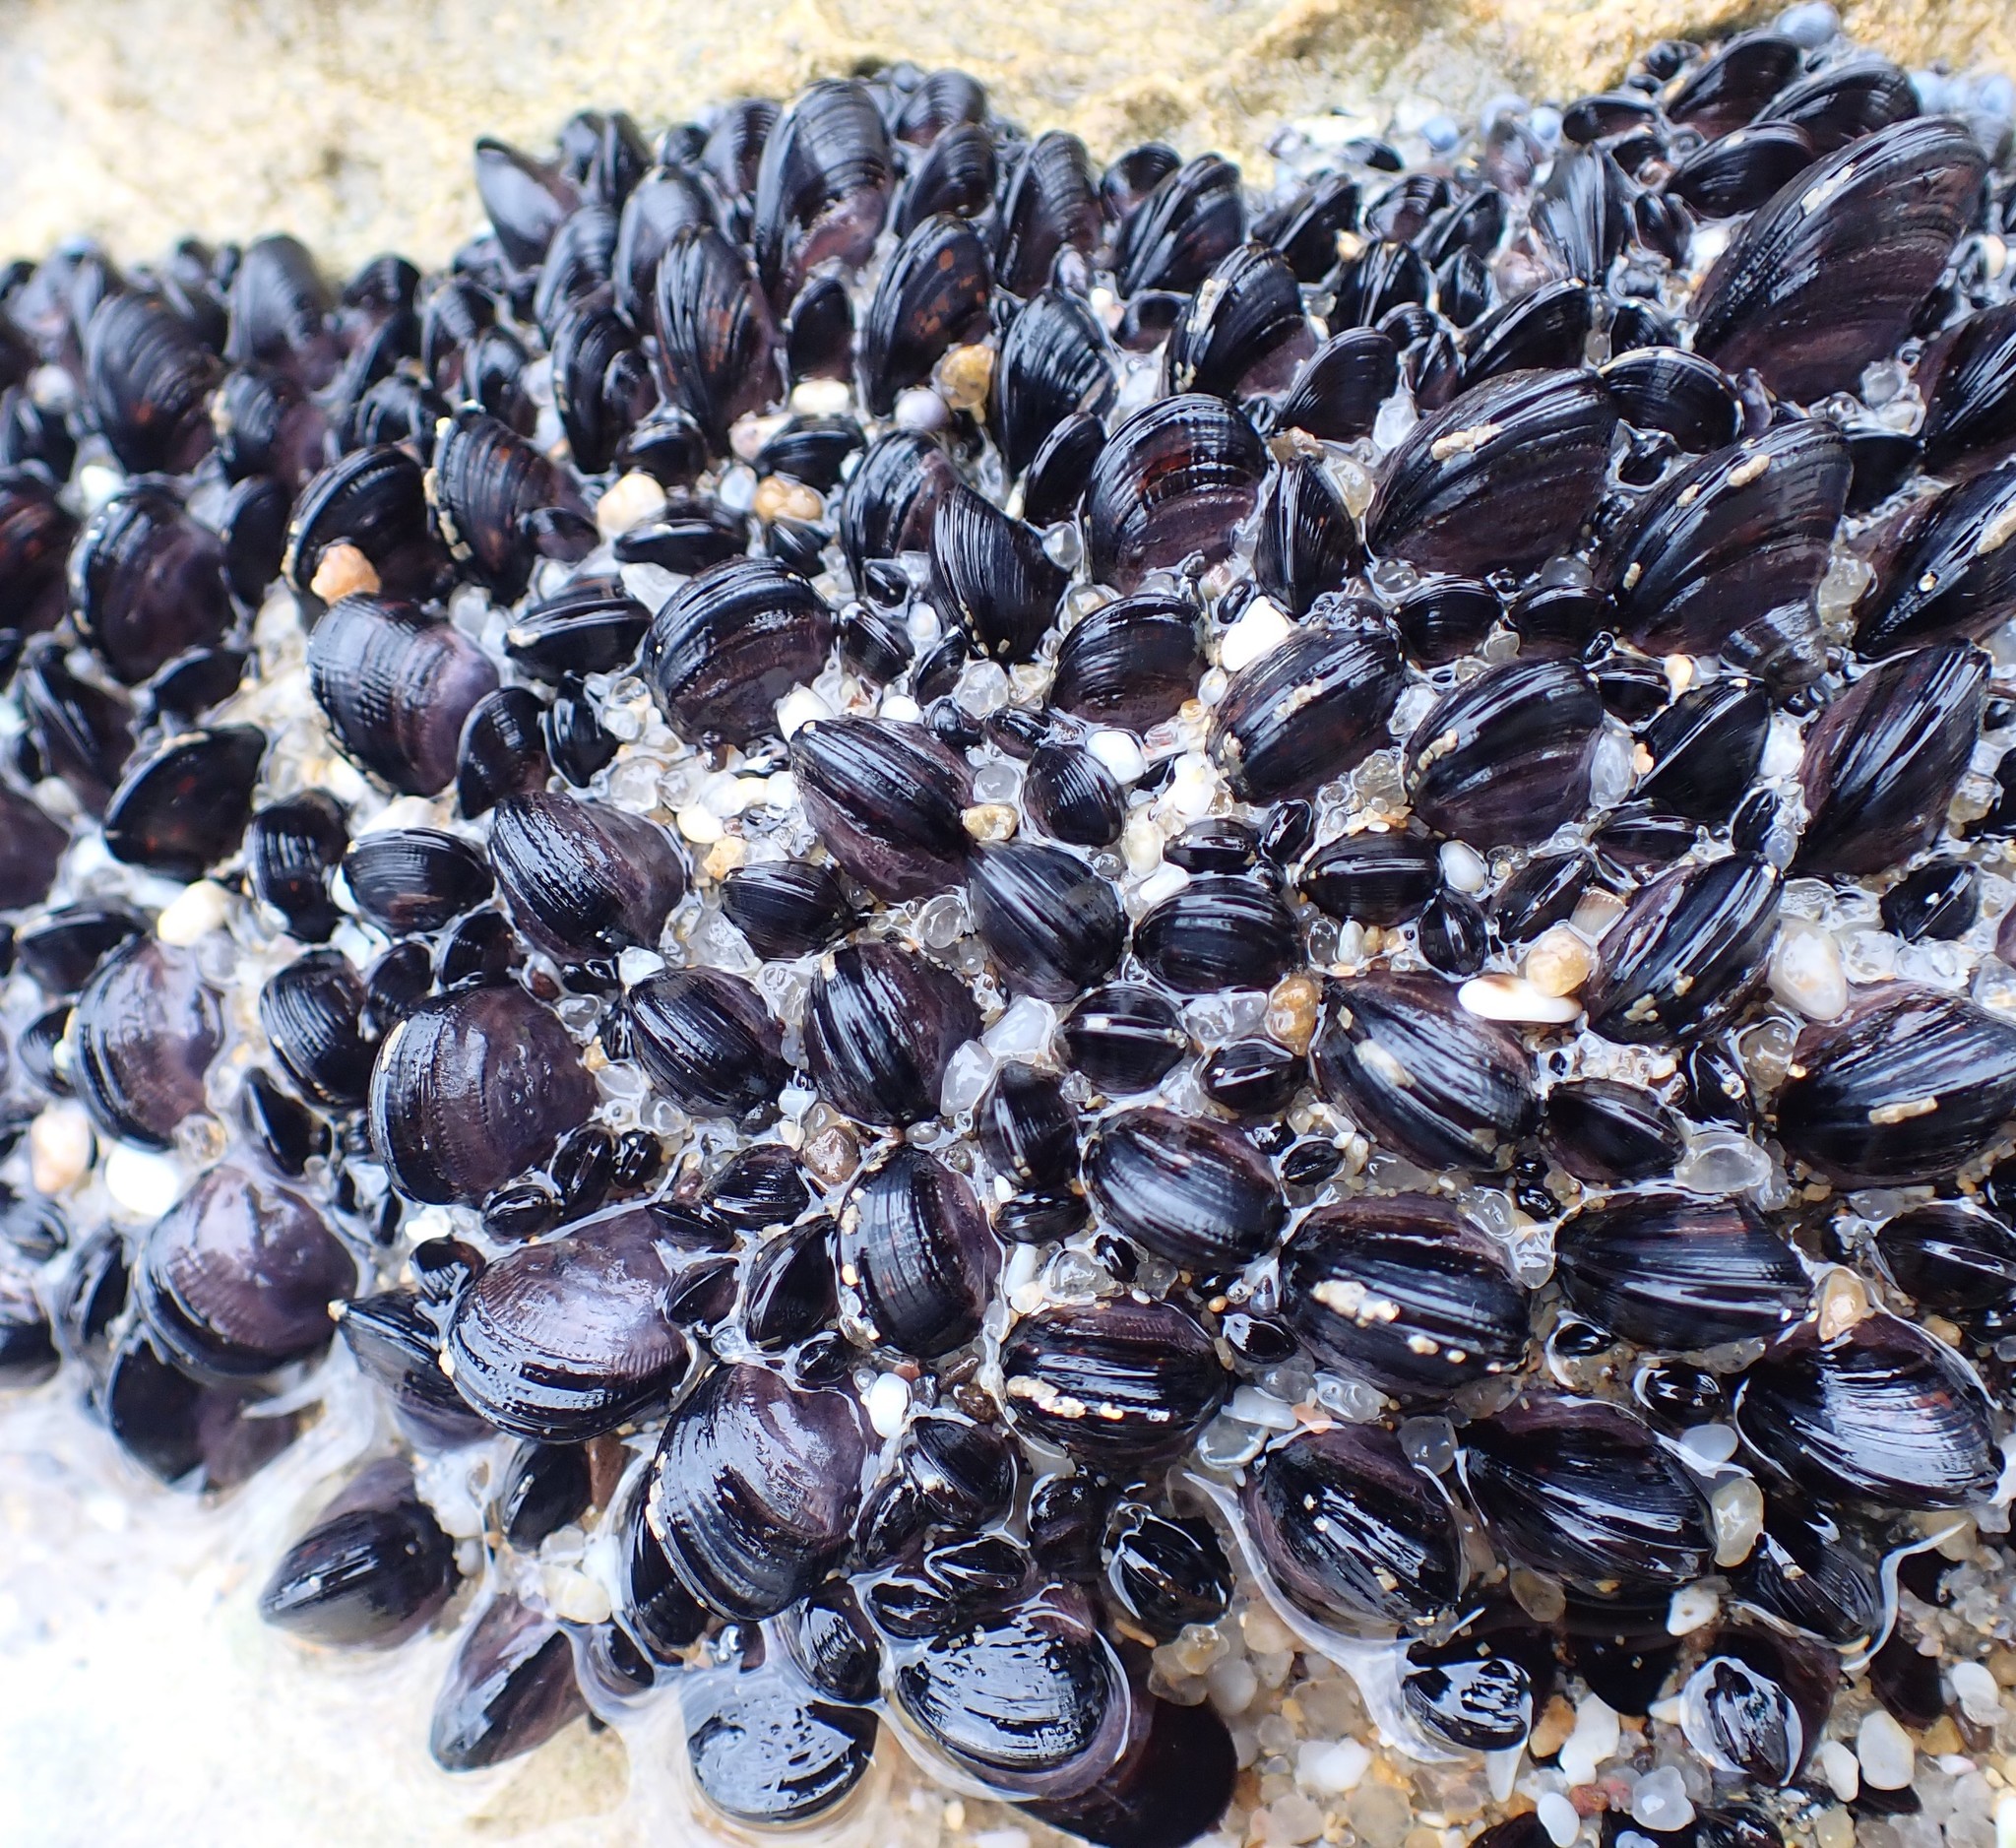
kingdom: Animalia
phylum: Mollusca
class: Bivalvia
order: Mytilida
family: Mytilidae
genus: Brachidontes
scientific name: Brachidontes rostratus
